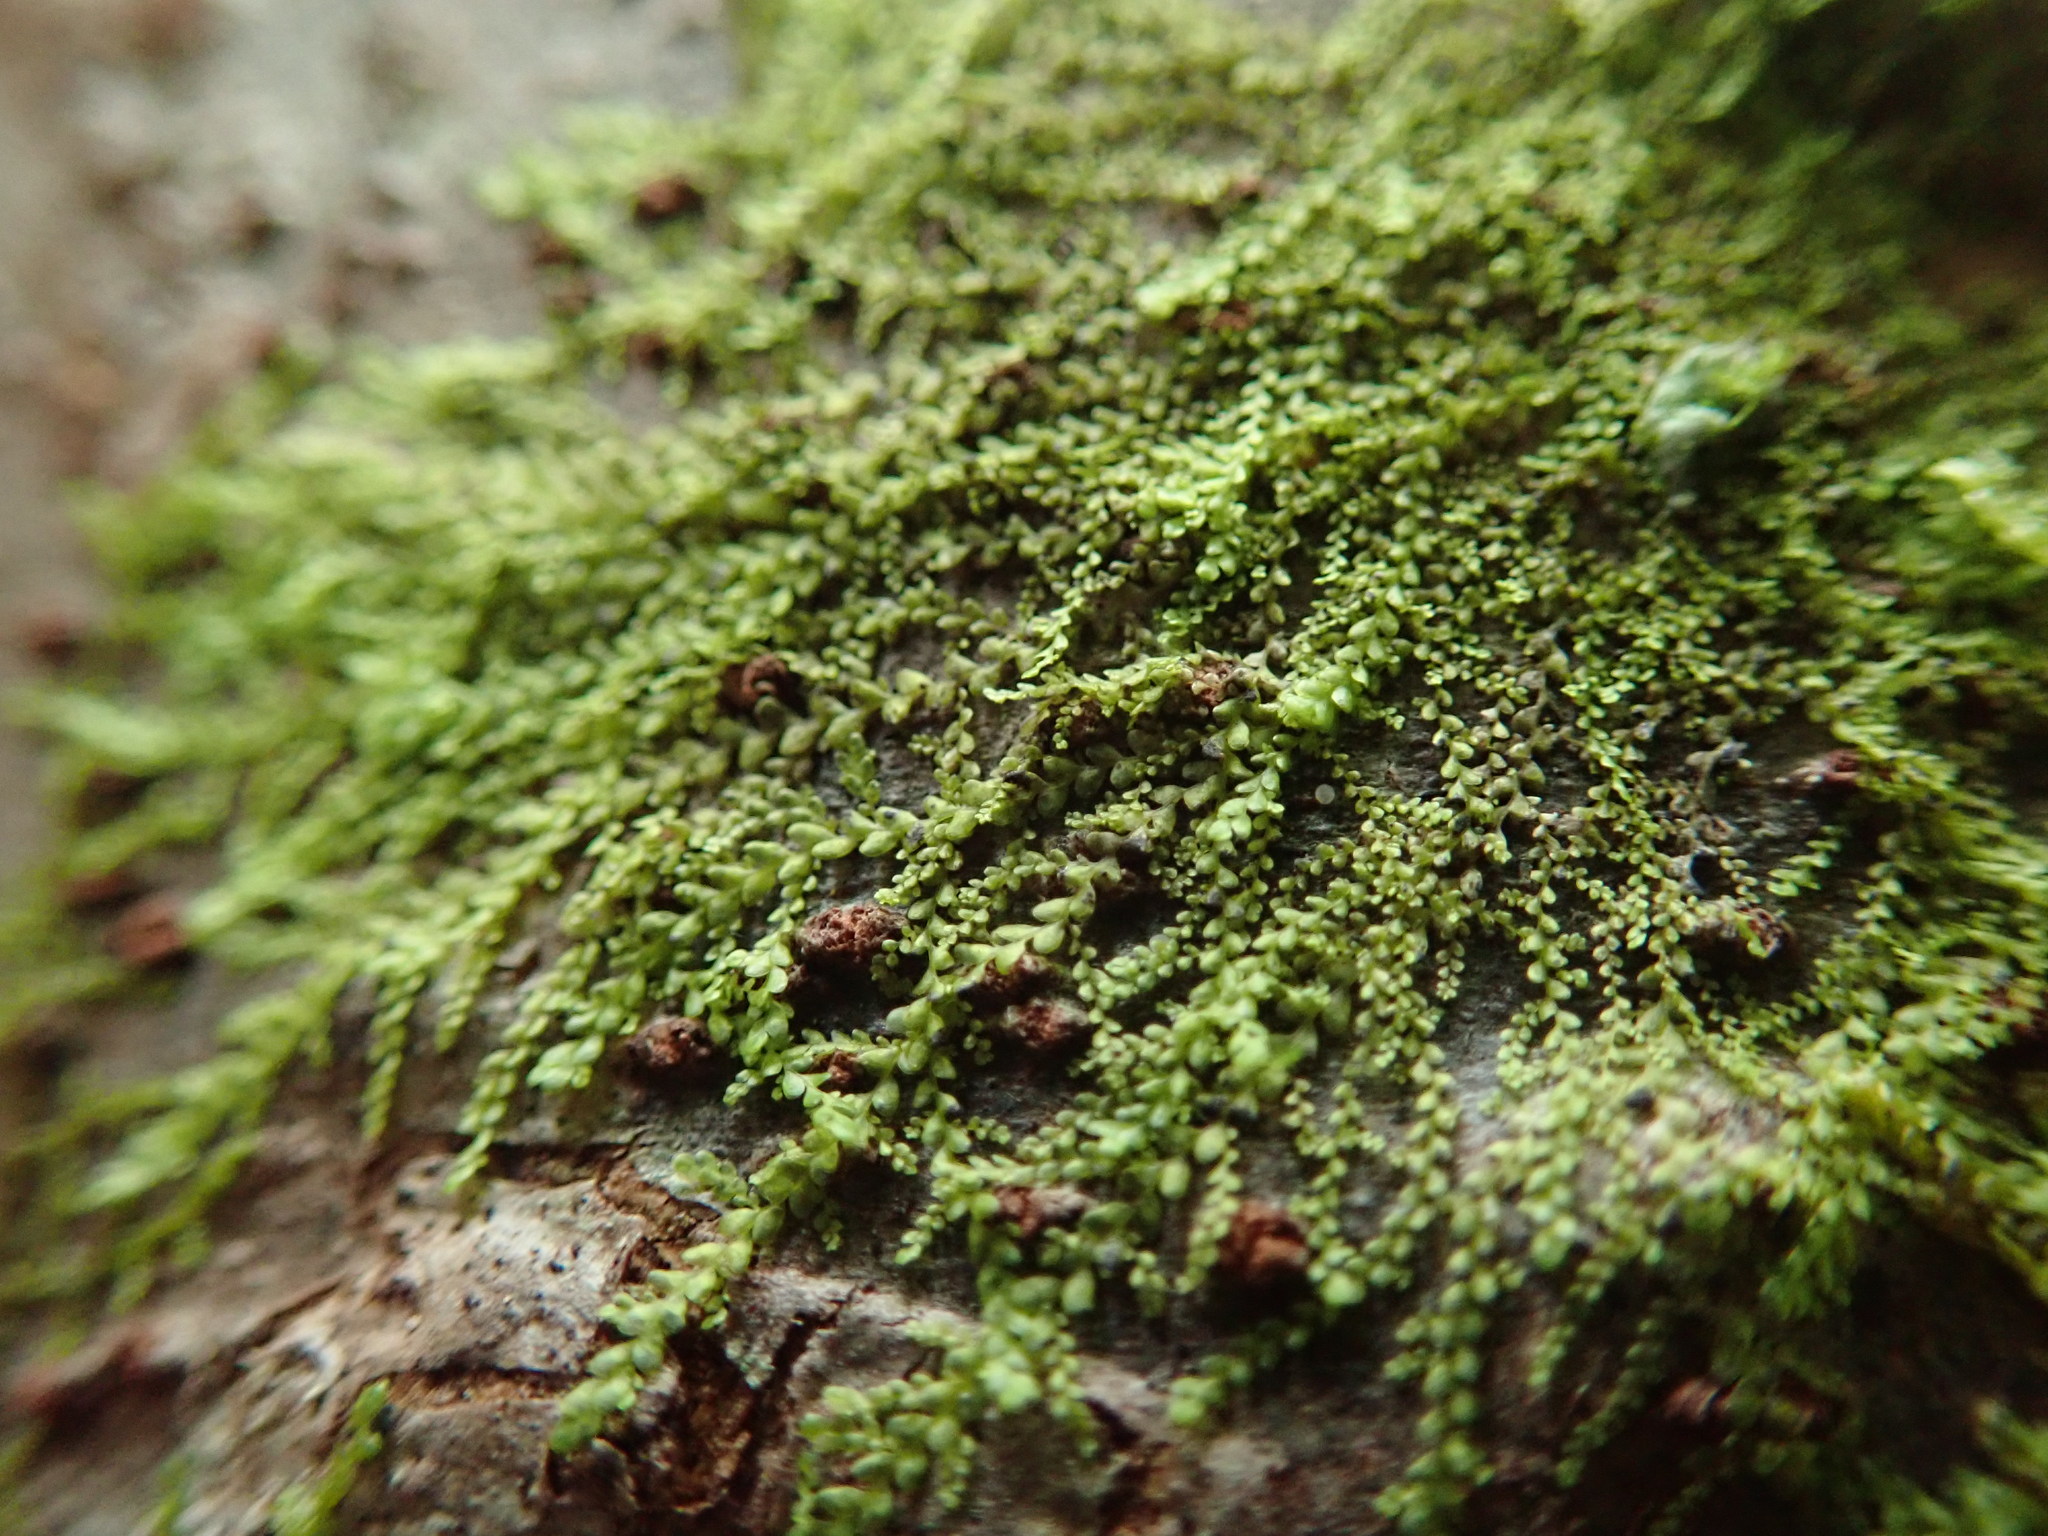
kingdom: Plantae
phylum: Marchantiophyta
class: Jungermanniopsida
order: Porellales
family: Radulaceae
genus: Radula
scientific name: Radula bolanderi
